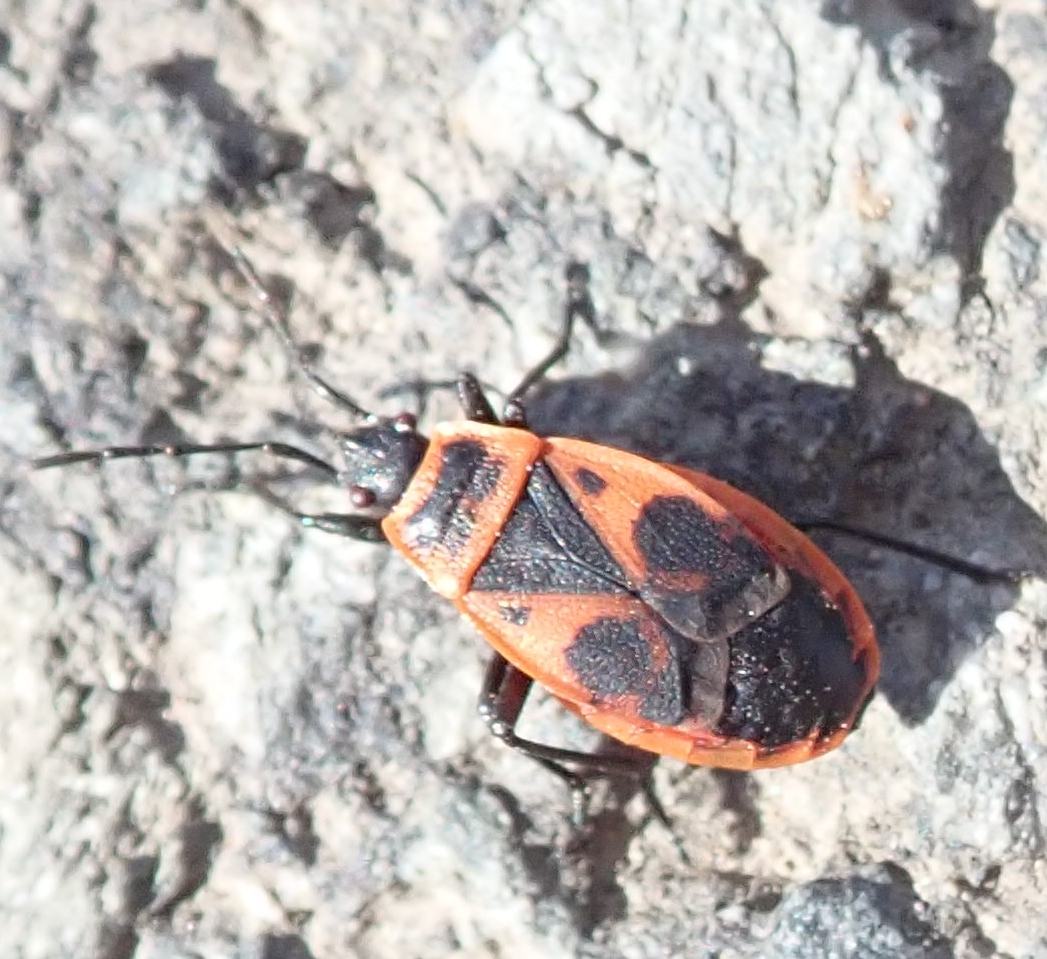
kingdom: Animalia
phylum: Arthropoda
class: Insecta
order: Hemiptera
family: Pyrrhocoridae
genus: Pyrrhocoris
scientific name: Pyrrhocoris apterus
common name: Firebug
